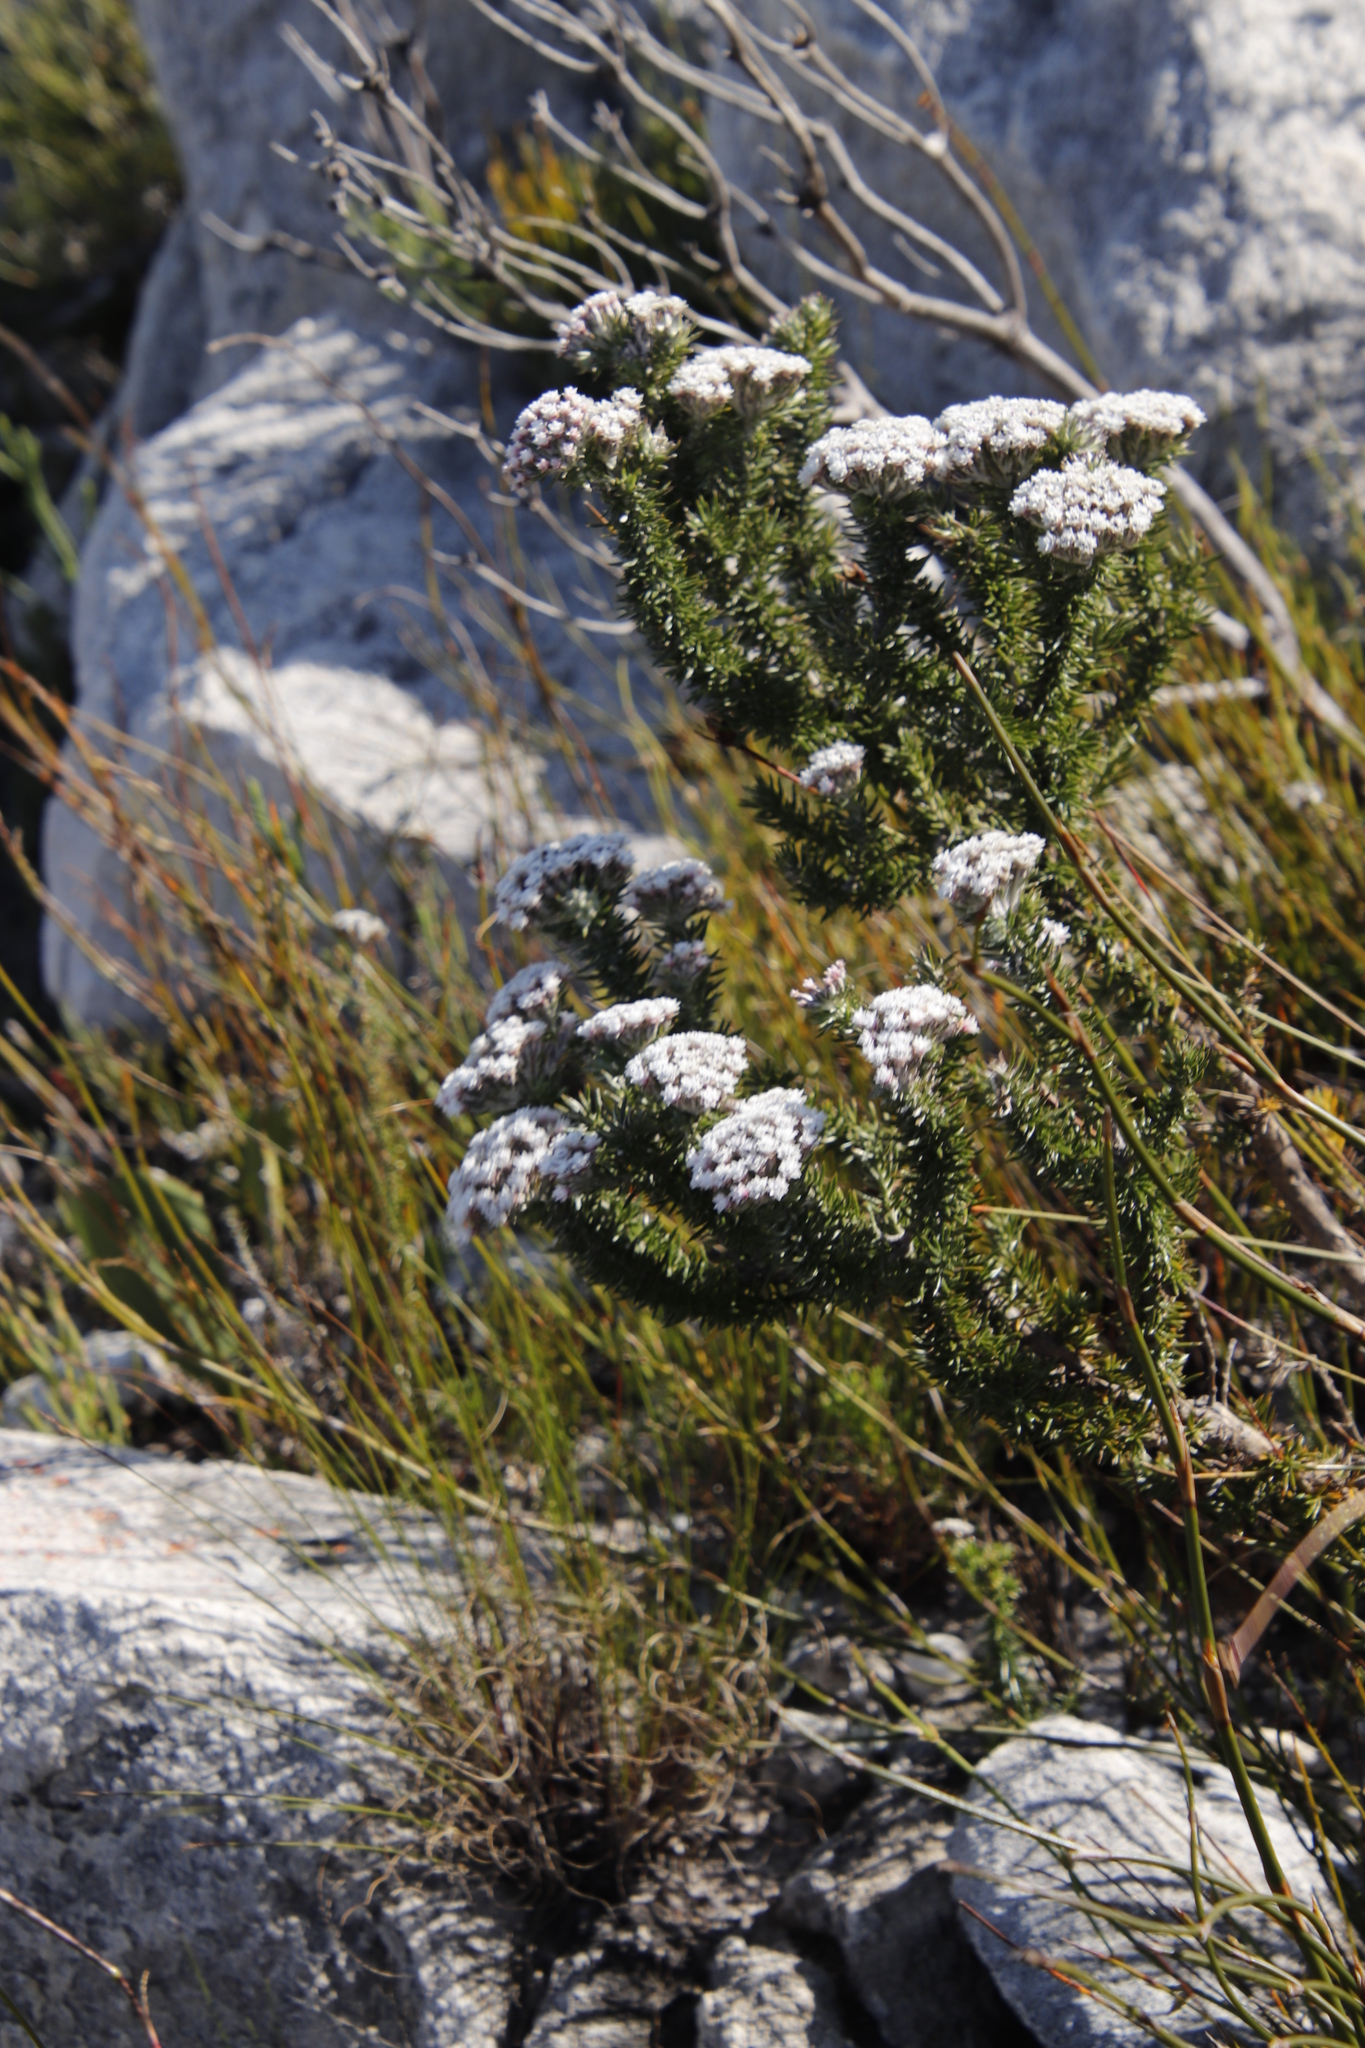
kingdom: Plantae
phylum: Tracheophyta
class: Magnoliopsida
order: Asterales
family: Asteraceae
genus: Metalasia
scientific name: Metalasia lichtensteinii
